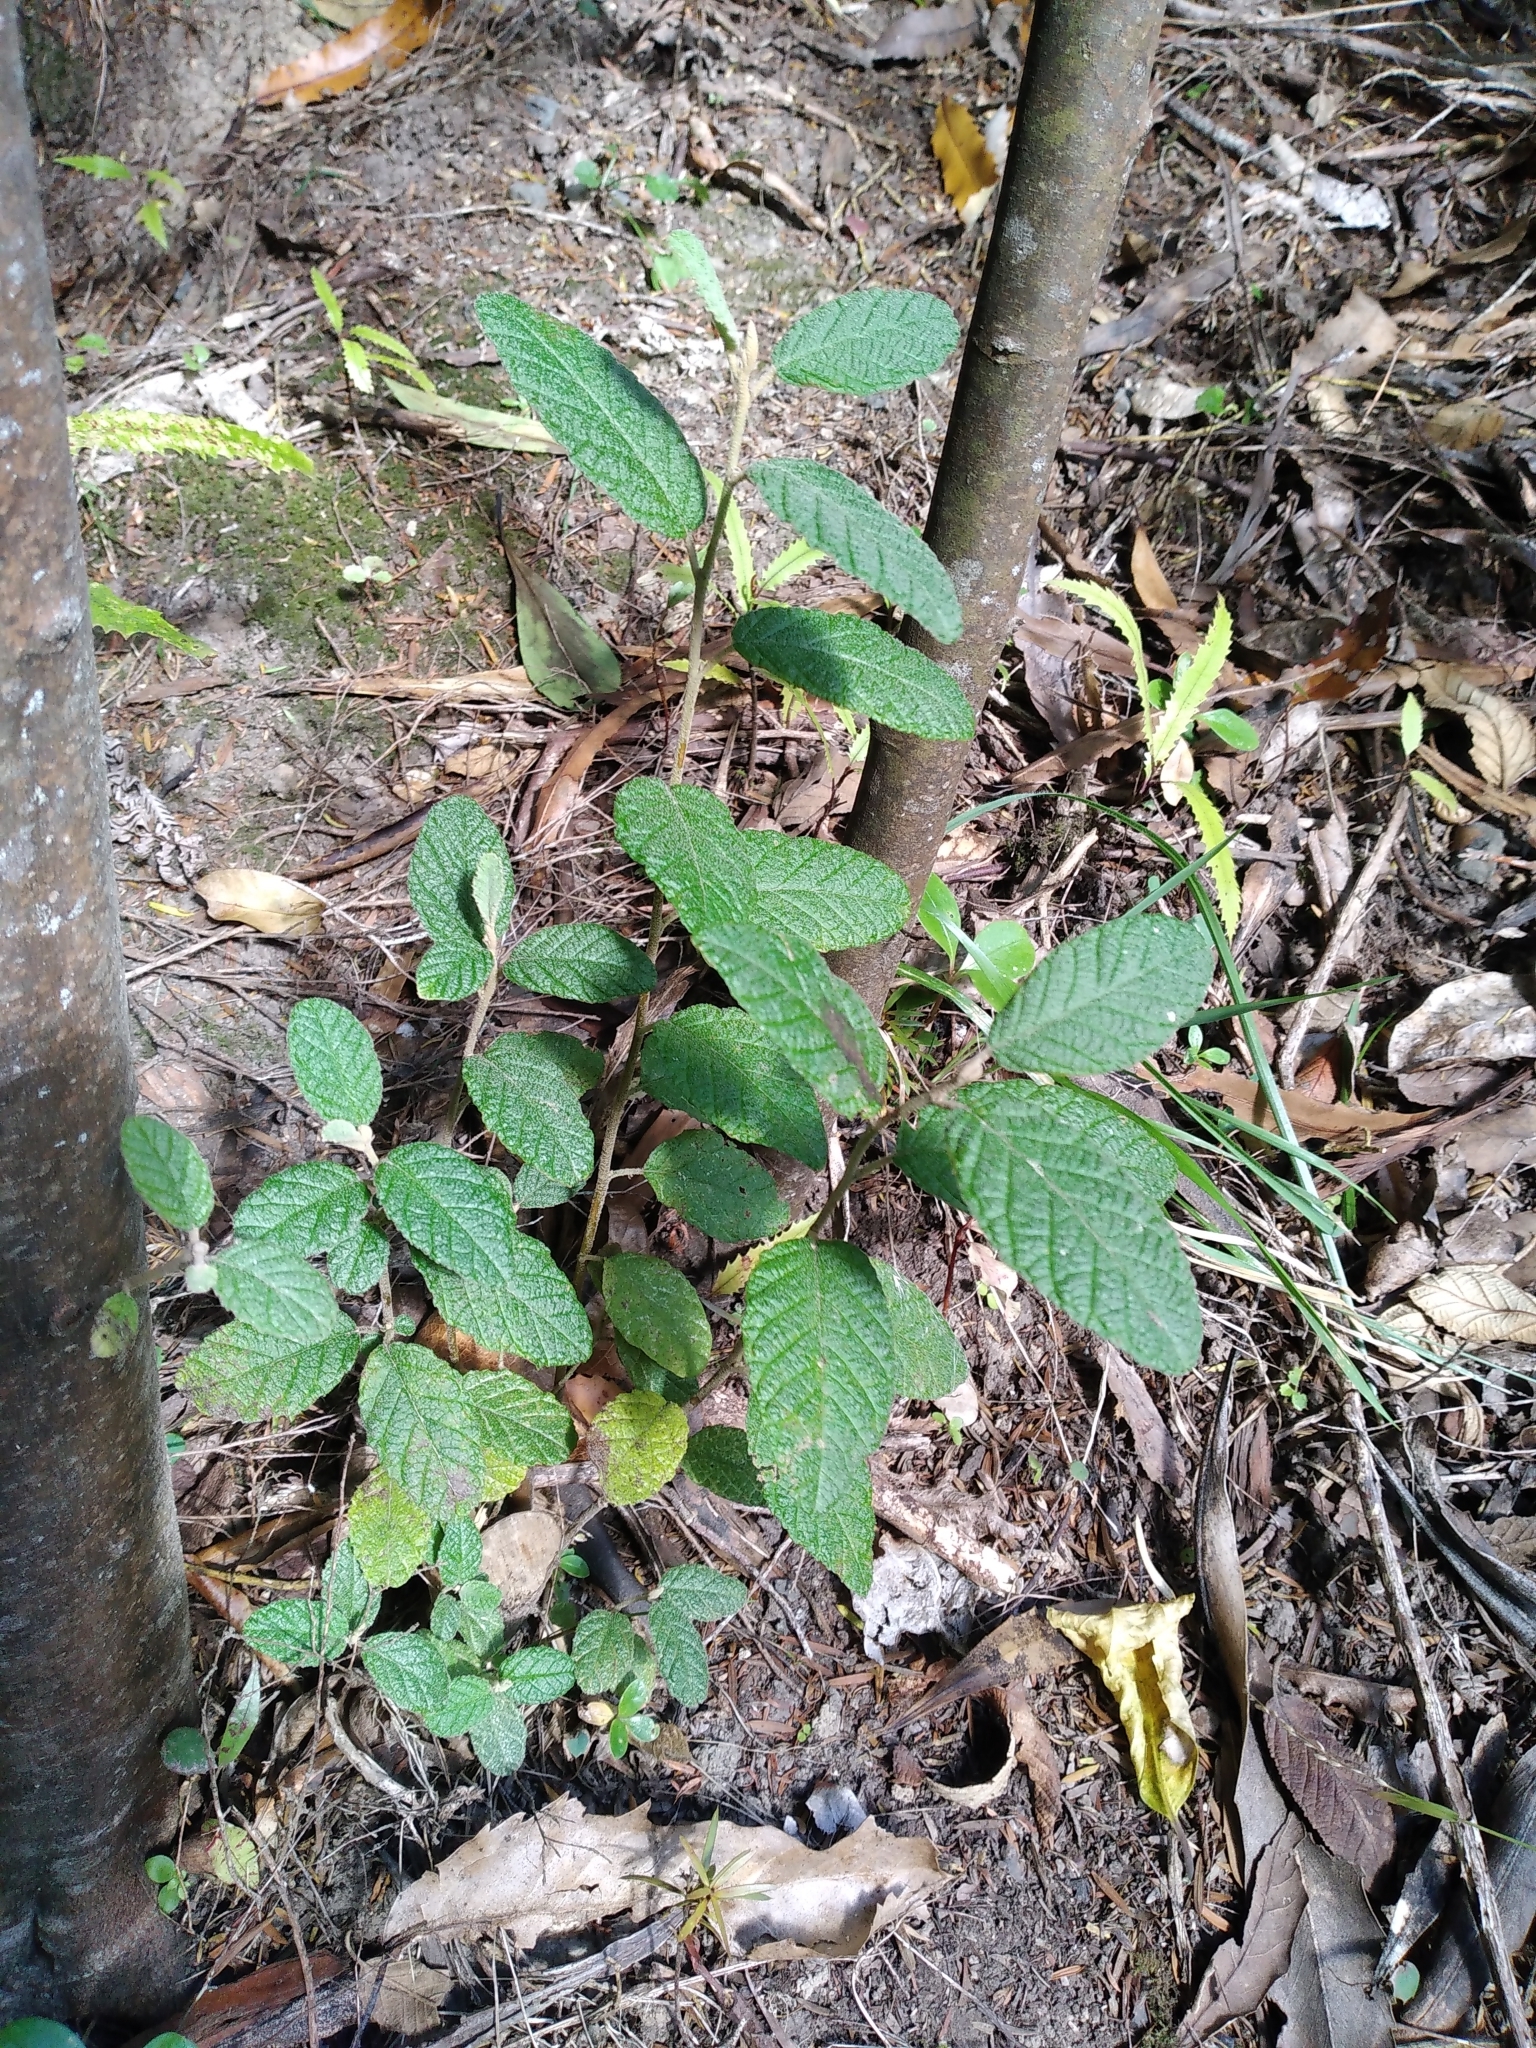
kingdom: Plantae
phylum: Tracheophyta
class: Magnoliopsida
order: Rosales
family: Rhamnaceae
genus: Pomaderris
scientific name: Pomaderris apetala
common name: Hazel pomaderris
